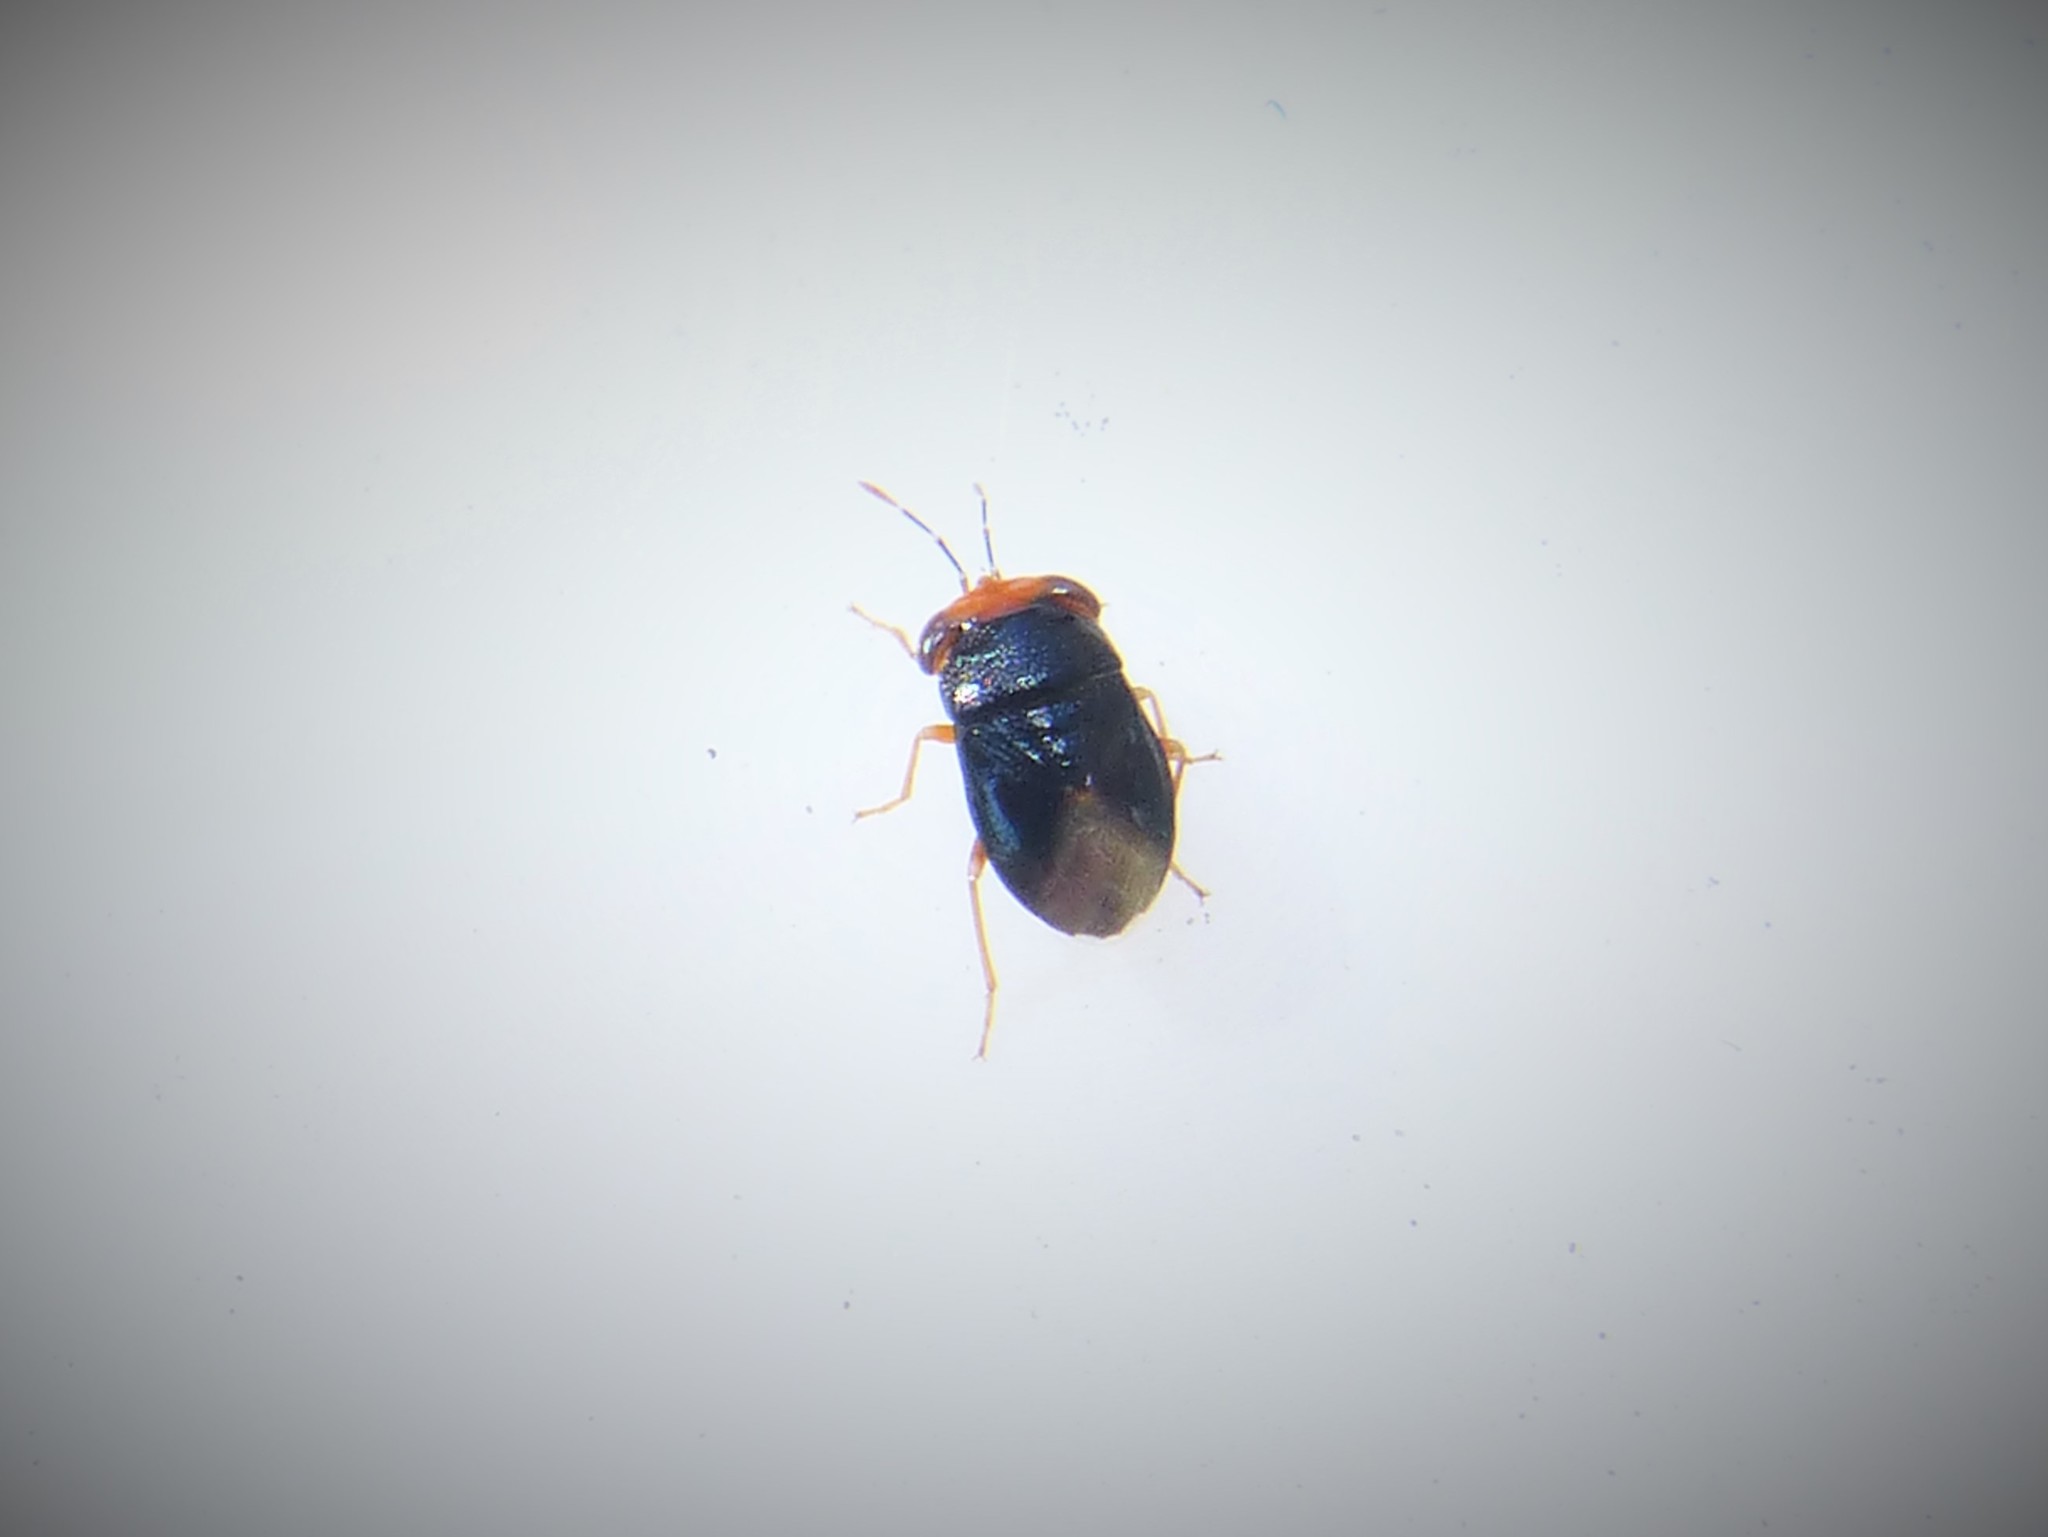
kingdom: Animalia
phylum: Arthropoda
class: Insecta
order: Hemiptera
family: Geocoridae
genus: Geocoris
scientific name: Geocoris erythrocephala
